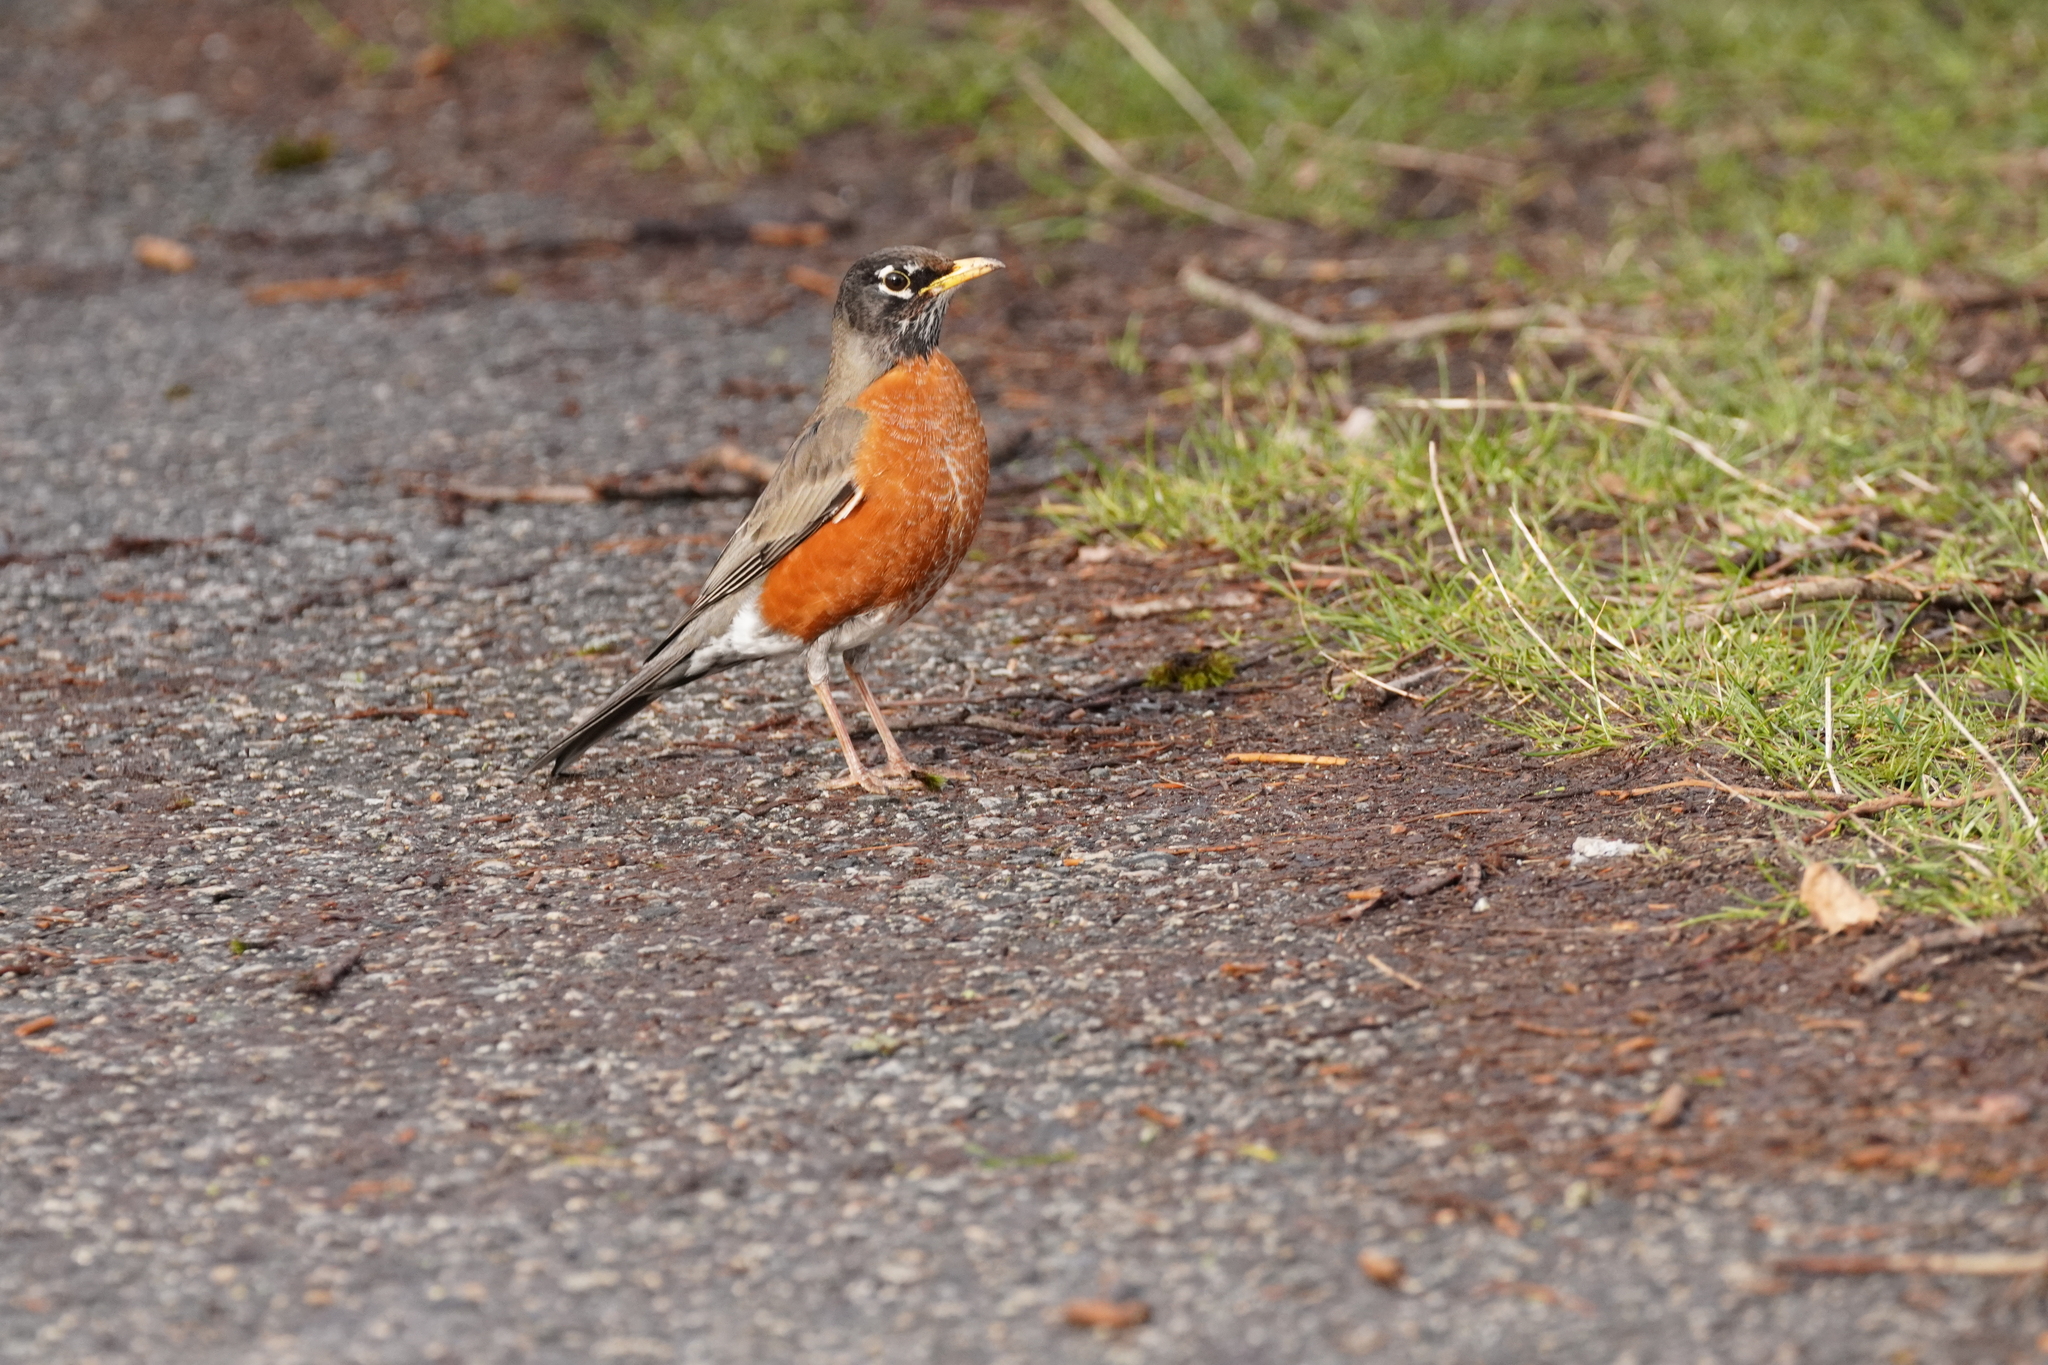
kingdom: Animalia
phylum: Chordata
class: Aves
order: Passeriformes
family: Turdidae
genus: Turdus
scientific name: Turdus migratorius
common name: American robin
